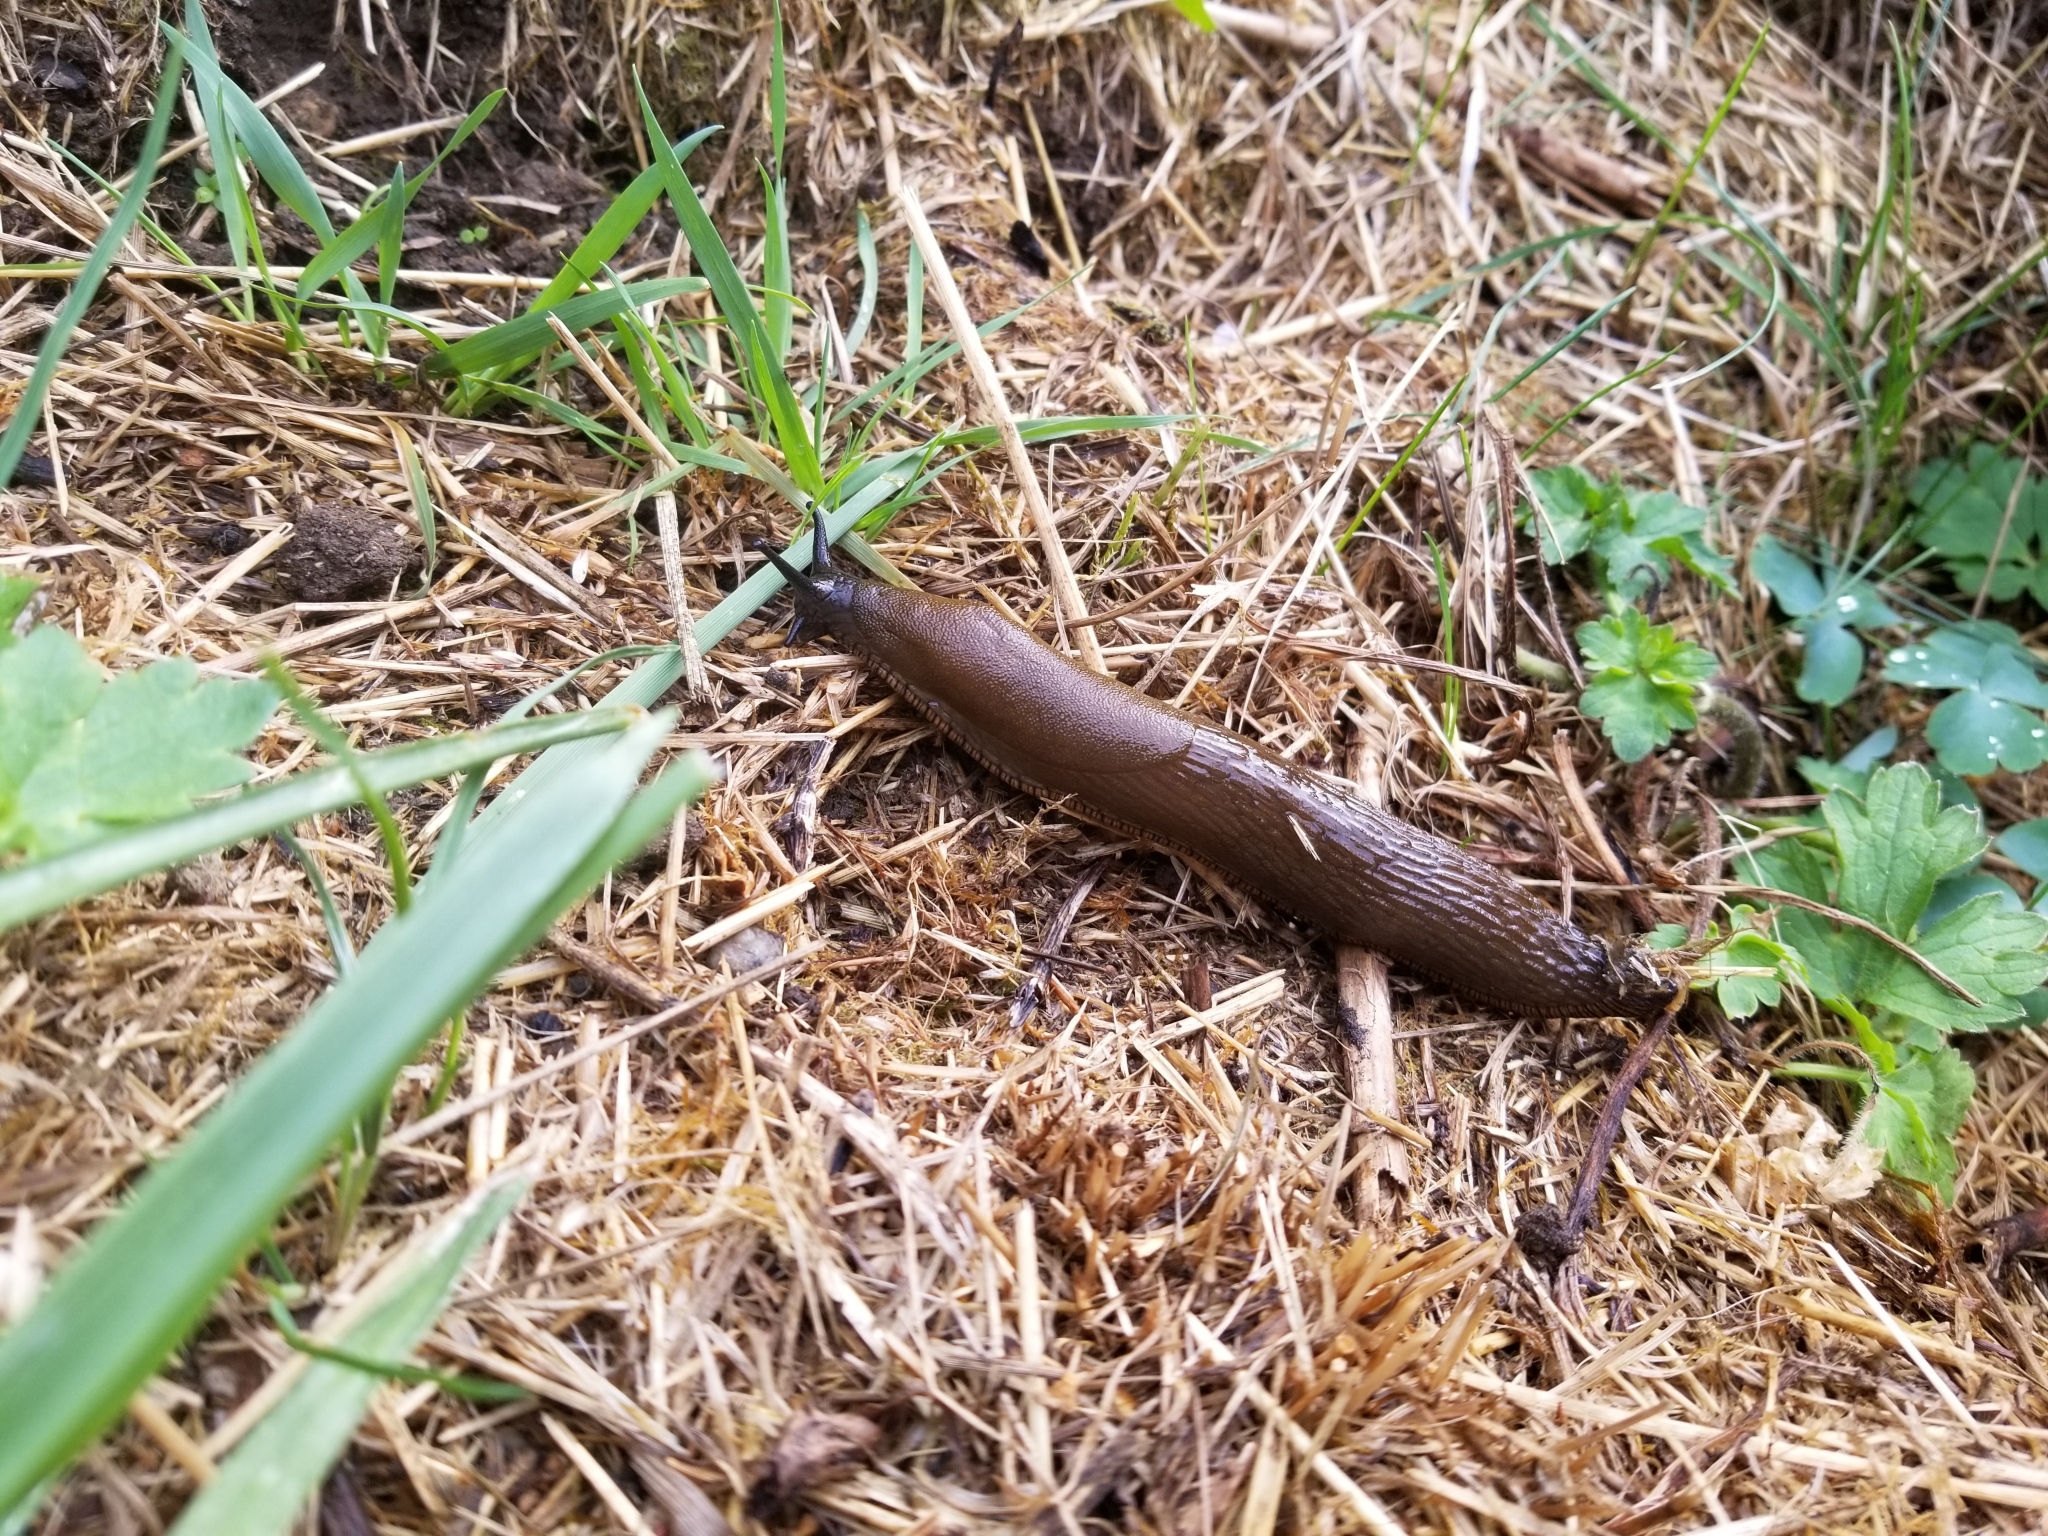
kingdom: Animalia
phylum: Mollusca
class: Gastropoda
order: Stylommatophora
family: Arionidae
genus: Arion
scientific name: Arion rufus
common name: Chocolate arion
